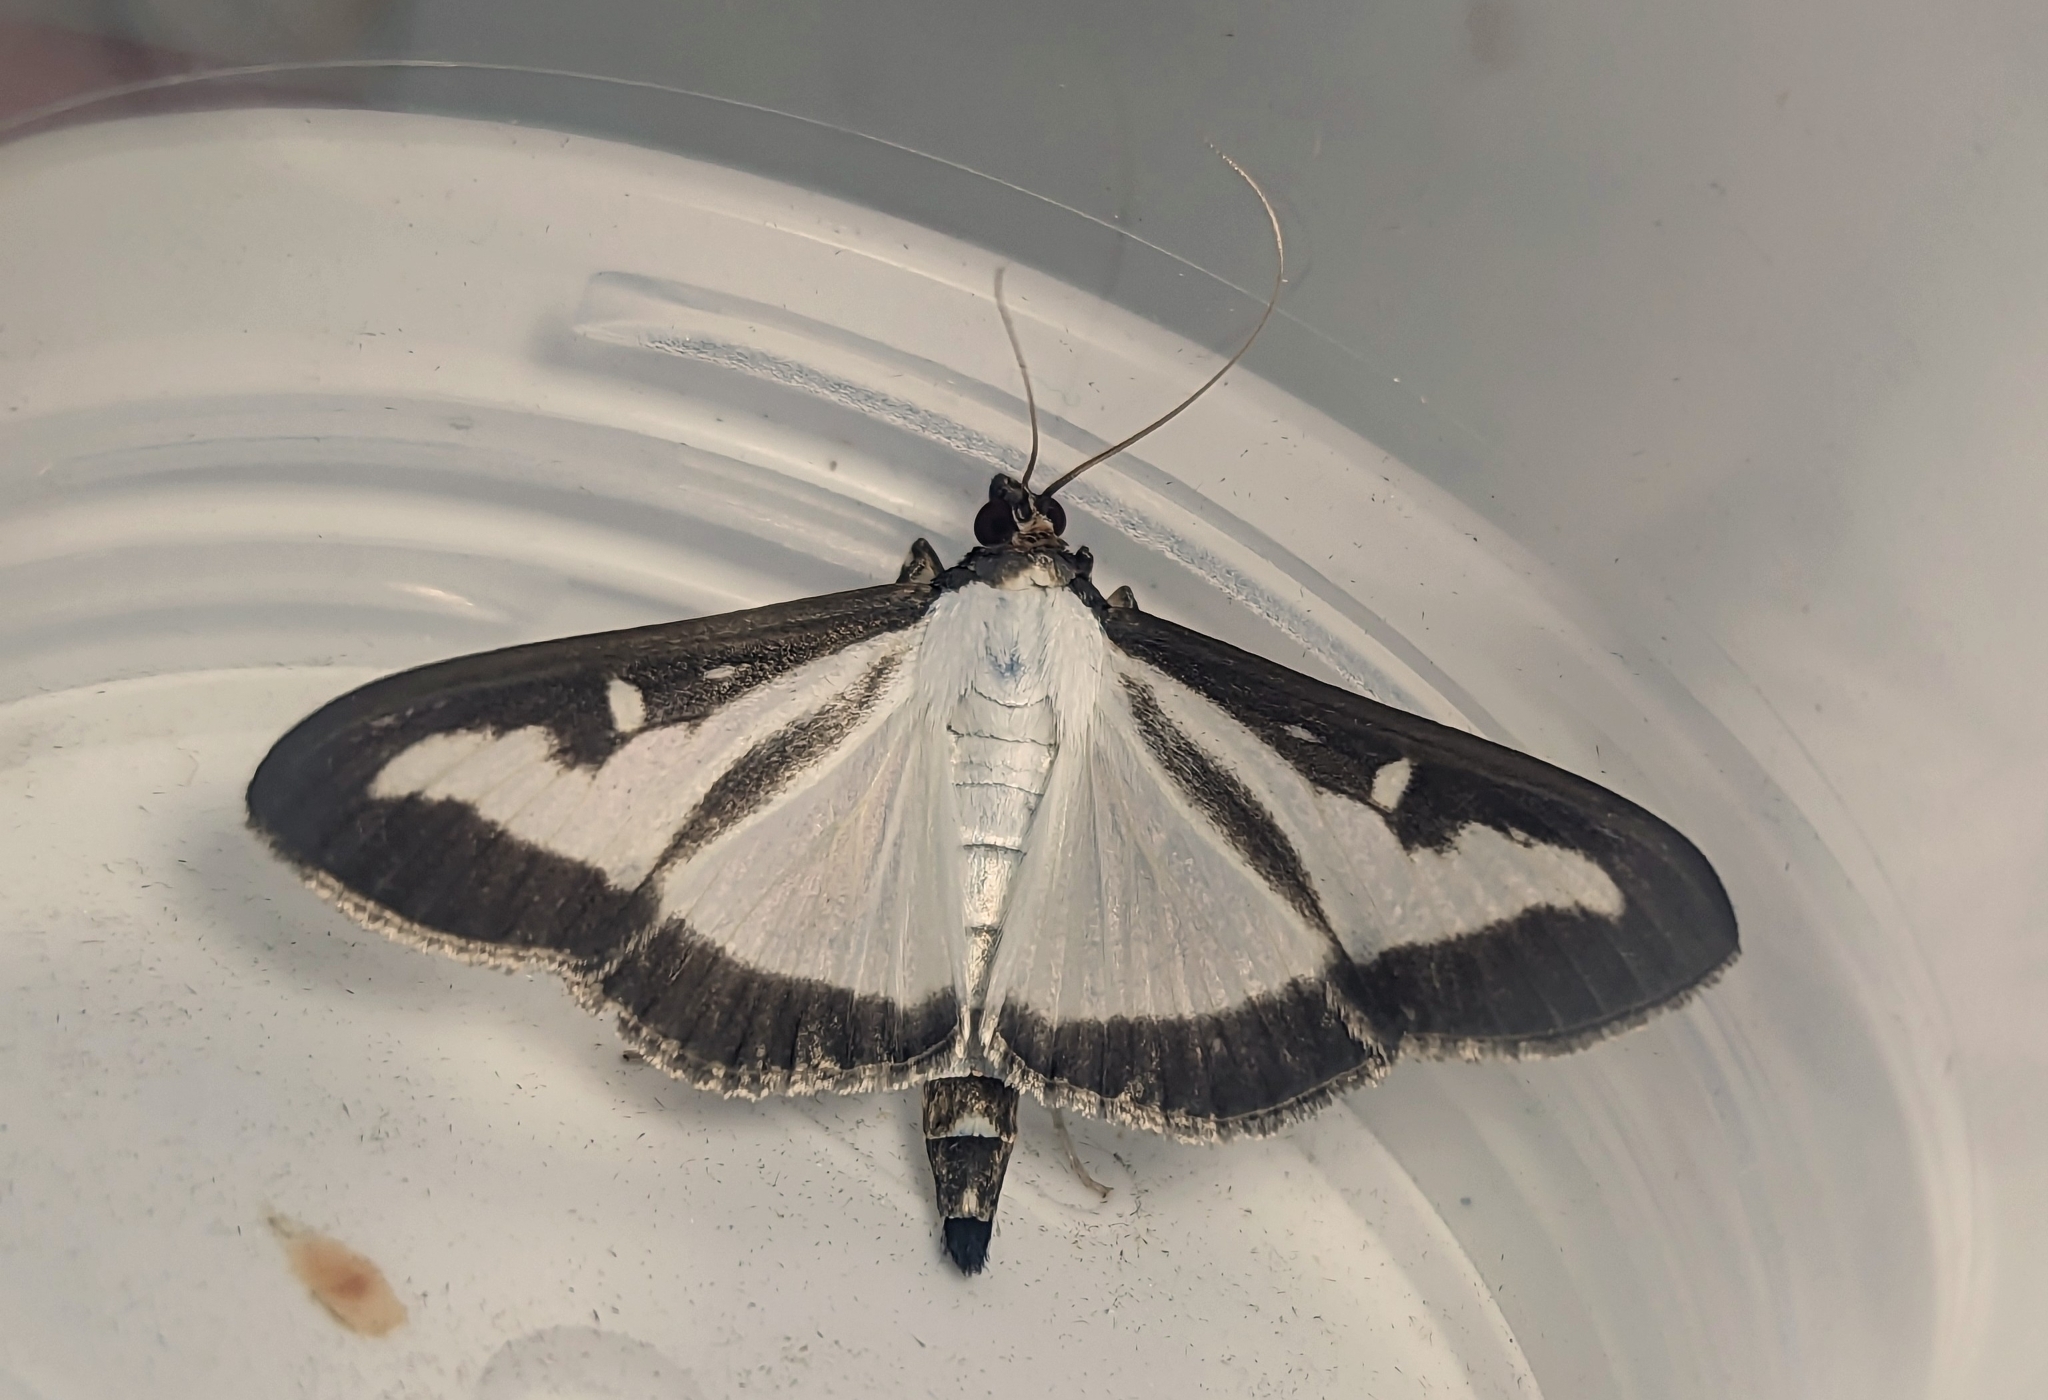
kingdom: Animalia
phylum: Arthropoda
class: Insecta
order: Lepidoptera
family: Crambidae
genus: Cydalima
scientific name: Cydalima perspectalis
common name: Box tree moth
